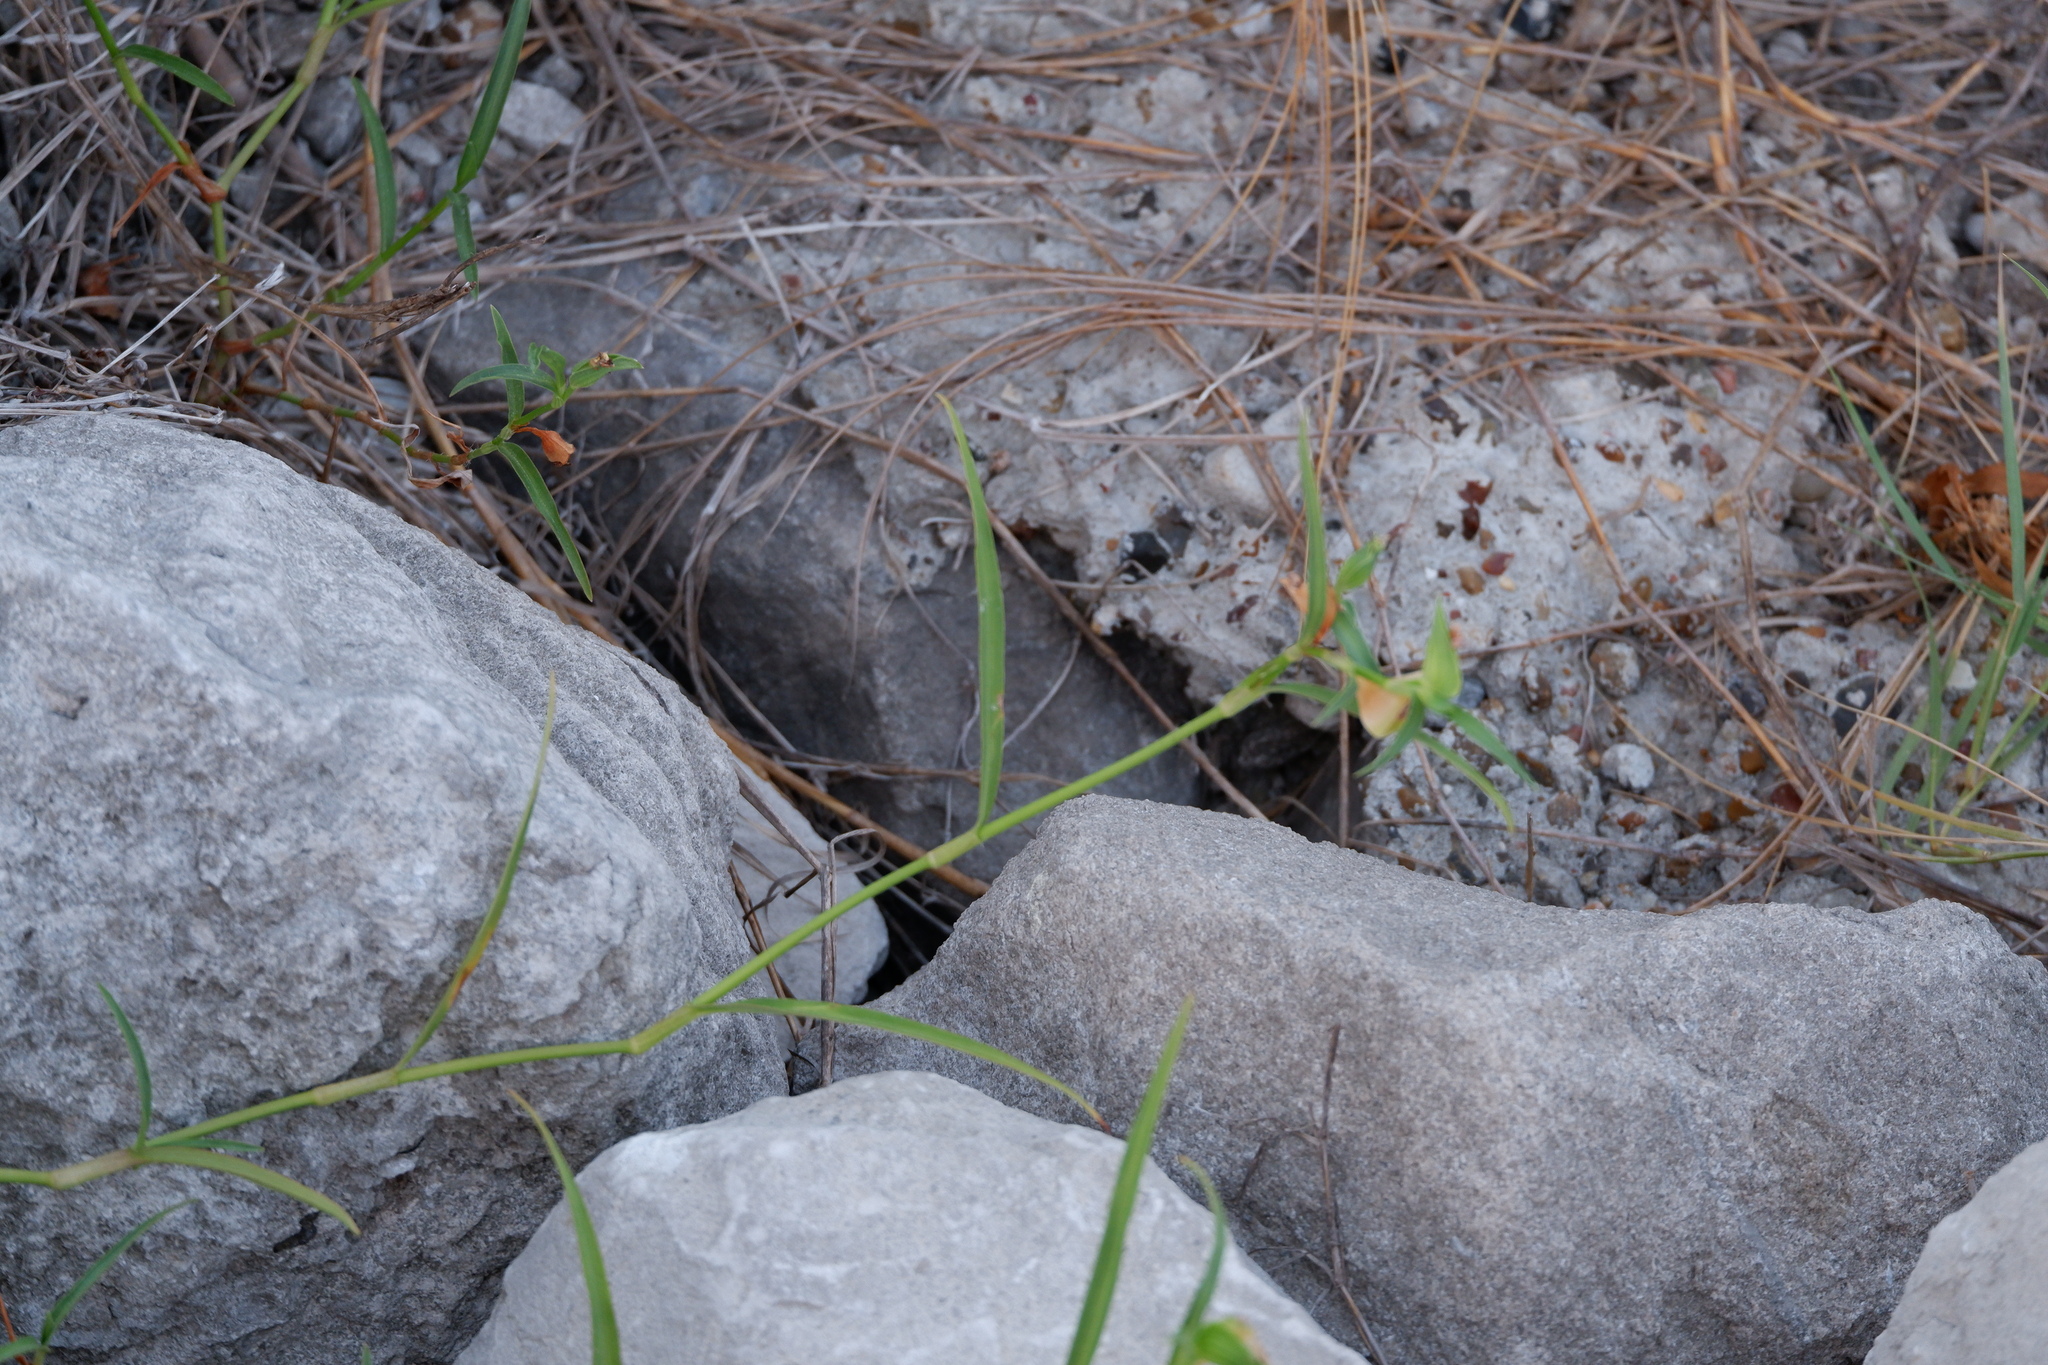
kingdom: Plantae
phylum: Tracheophyta
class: Liliopsida
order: Commelinales
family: Commelinaceae
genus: Commelina
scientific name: Commelina erecta
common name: Blousel blommetjie
